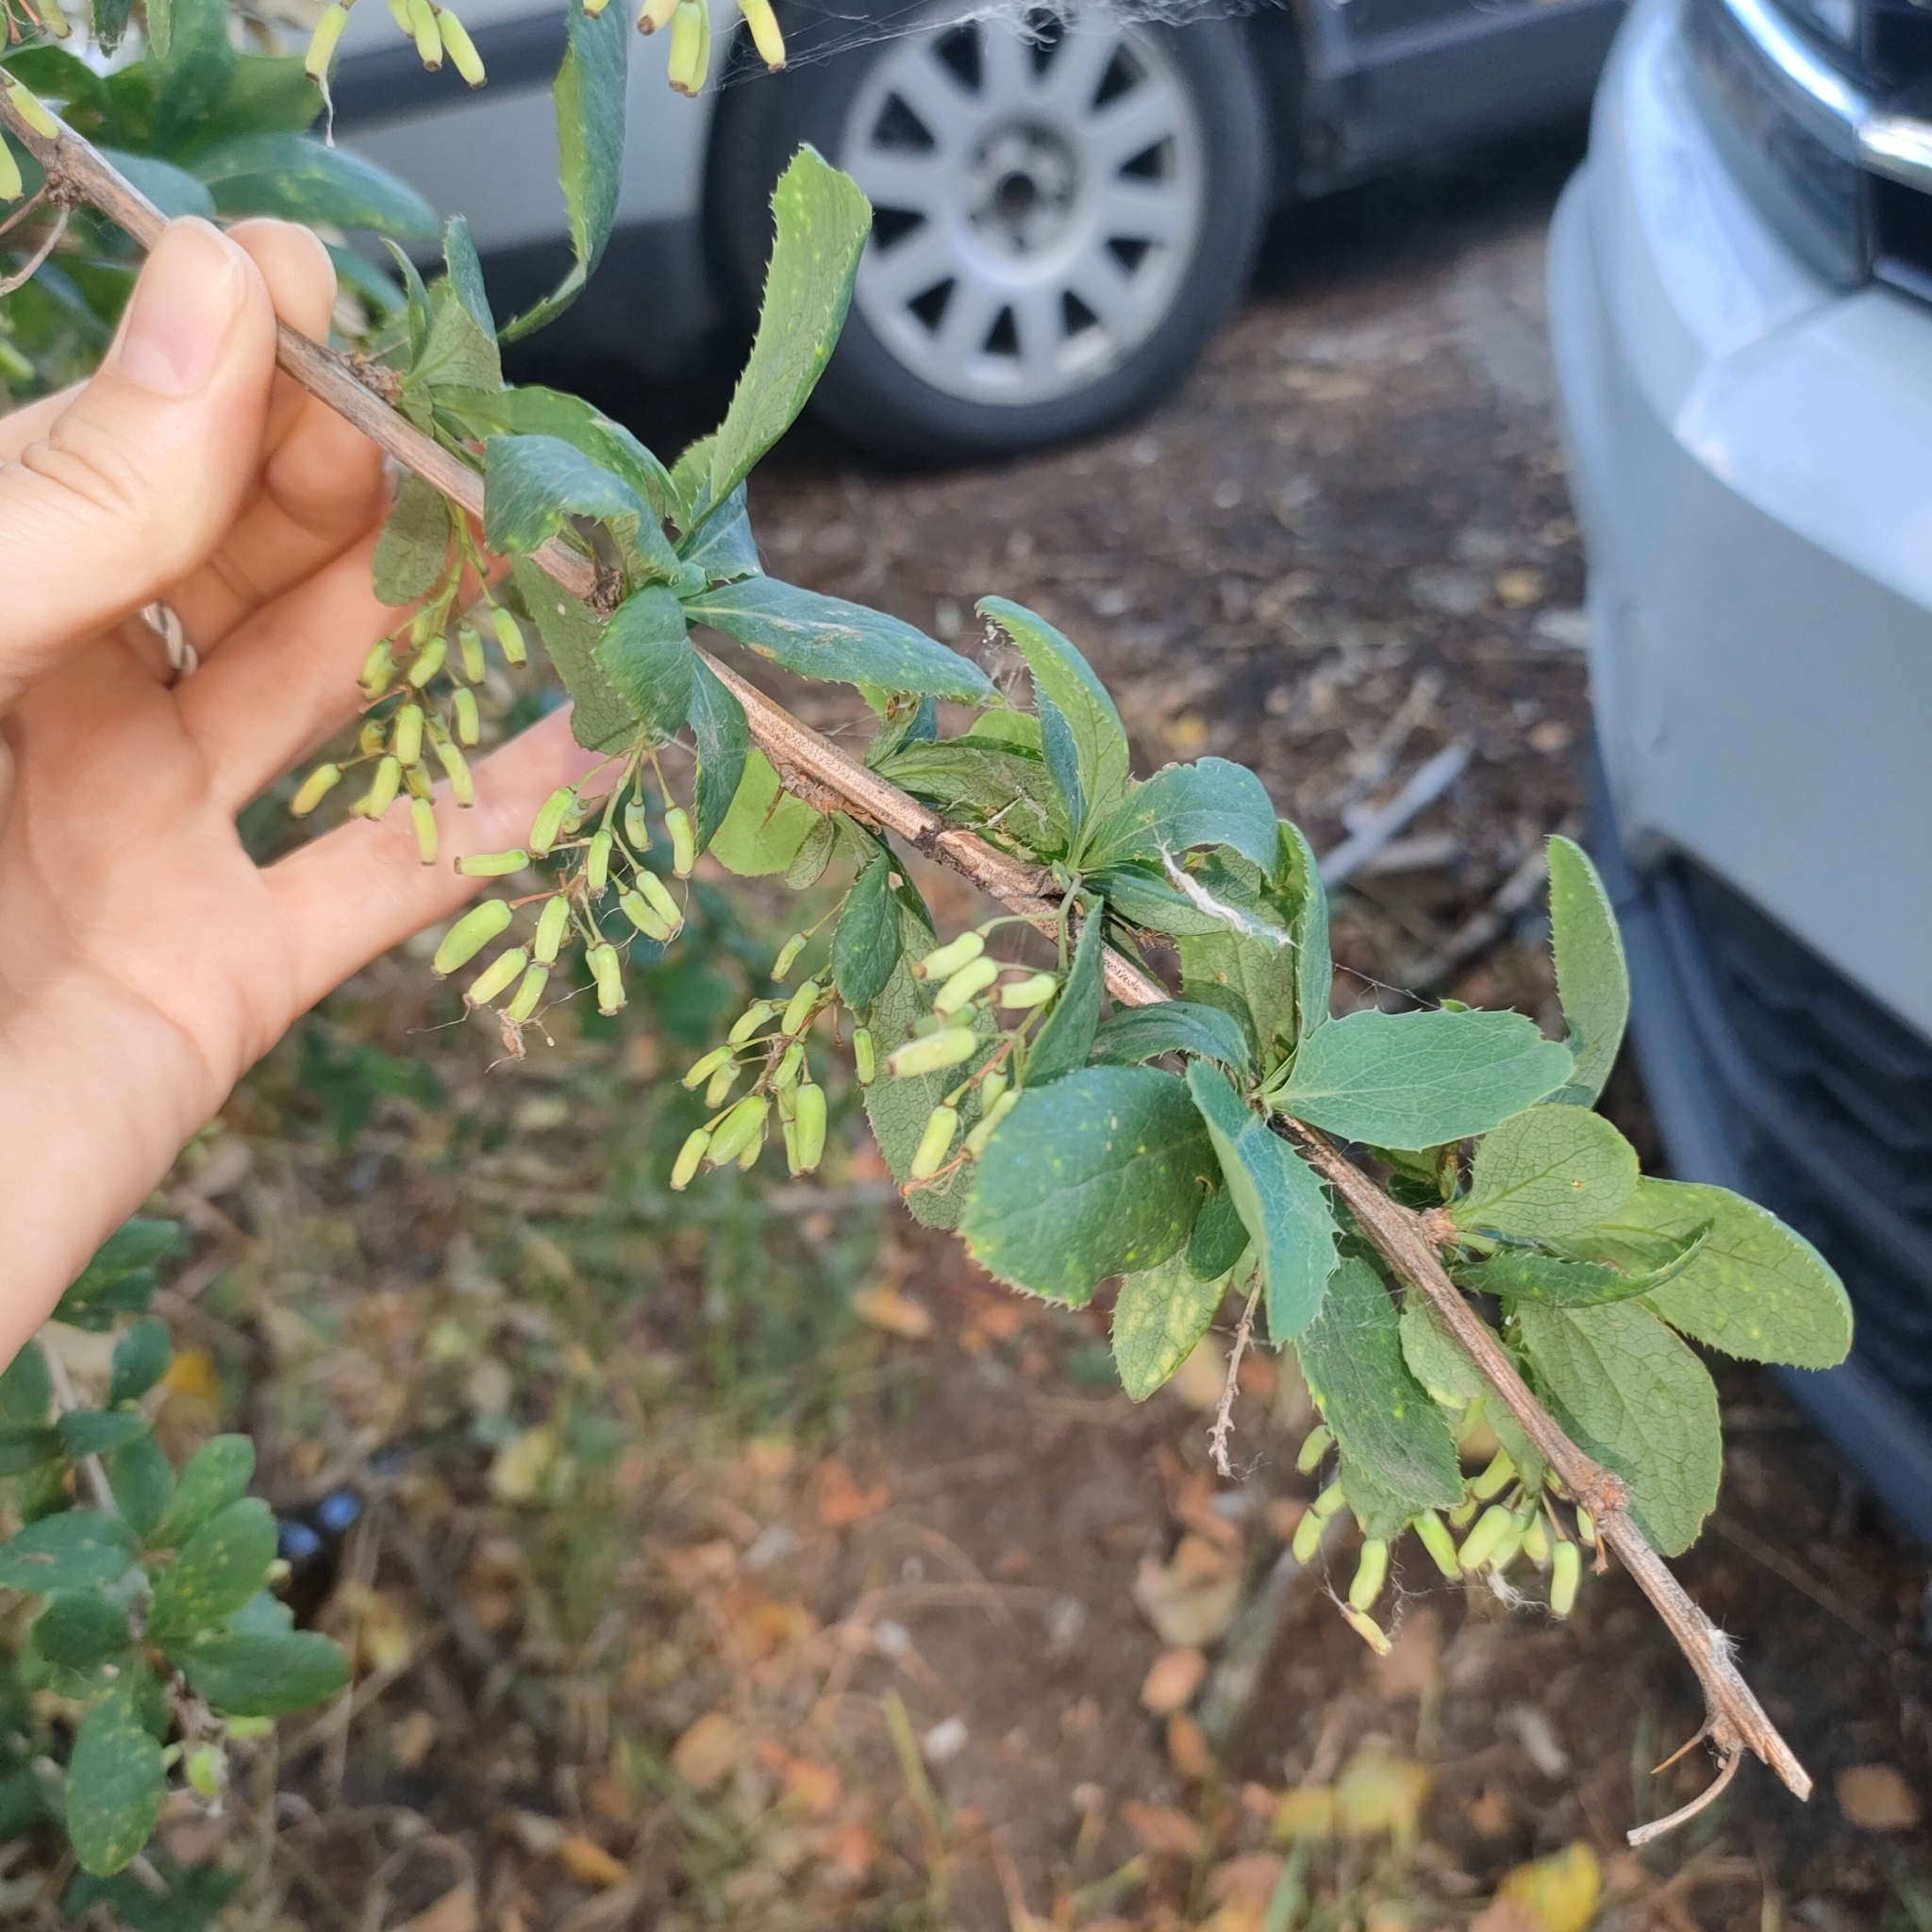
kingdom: Plantae
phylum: Tracheophyta
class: Magnoliopsida
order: Ranunculales
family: Berberidaceae
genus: Berberis
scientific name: Berberis vulgaris
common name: Barberry
